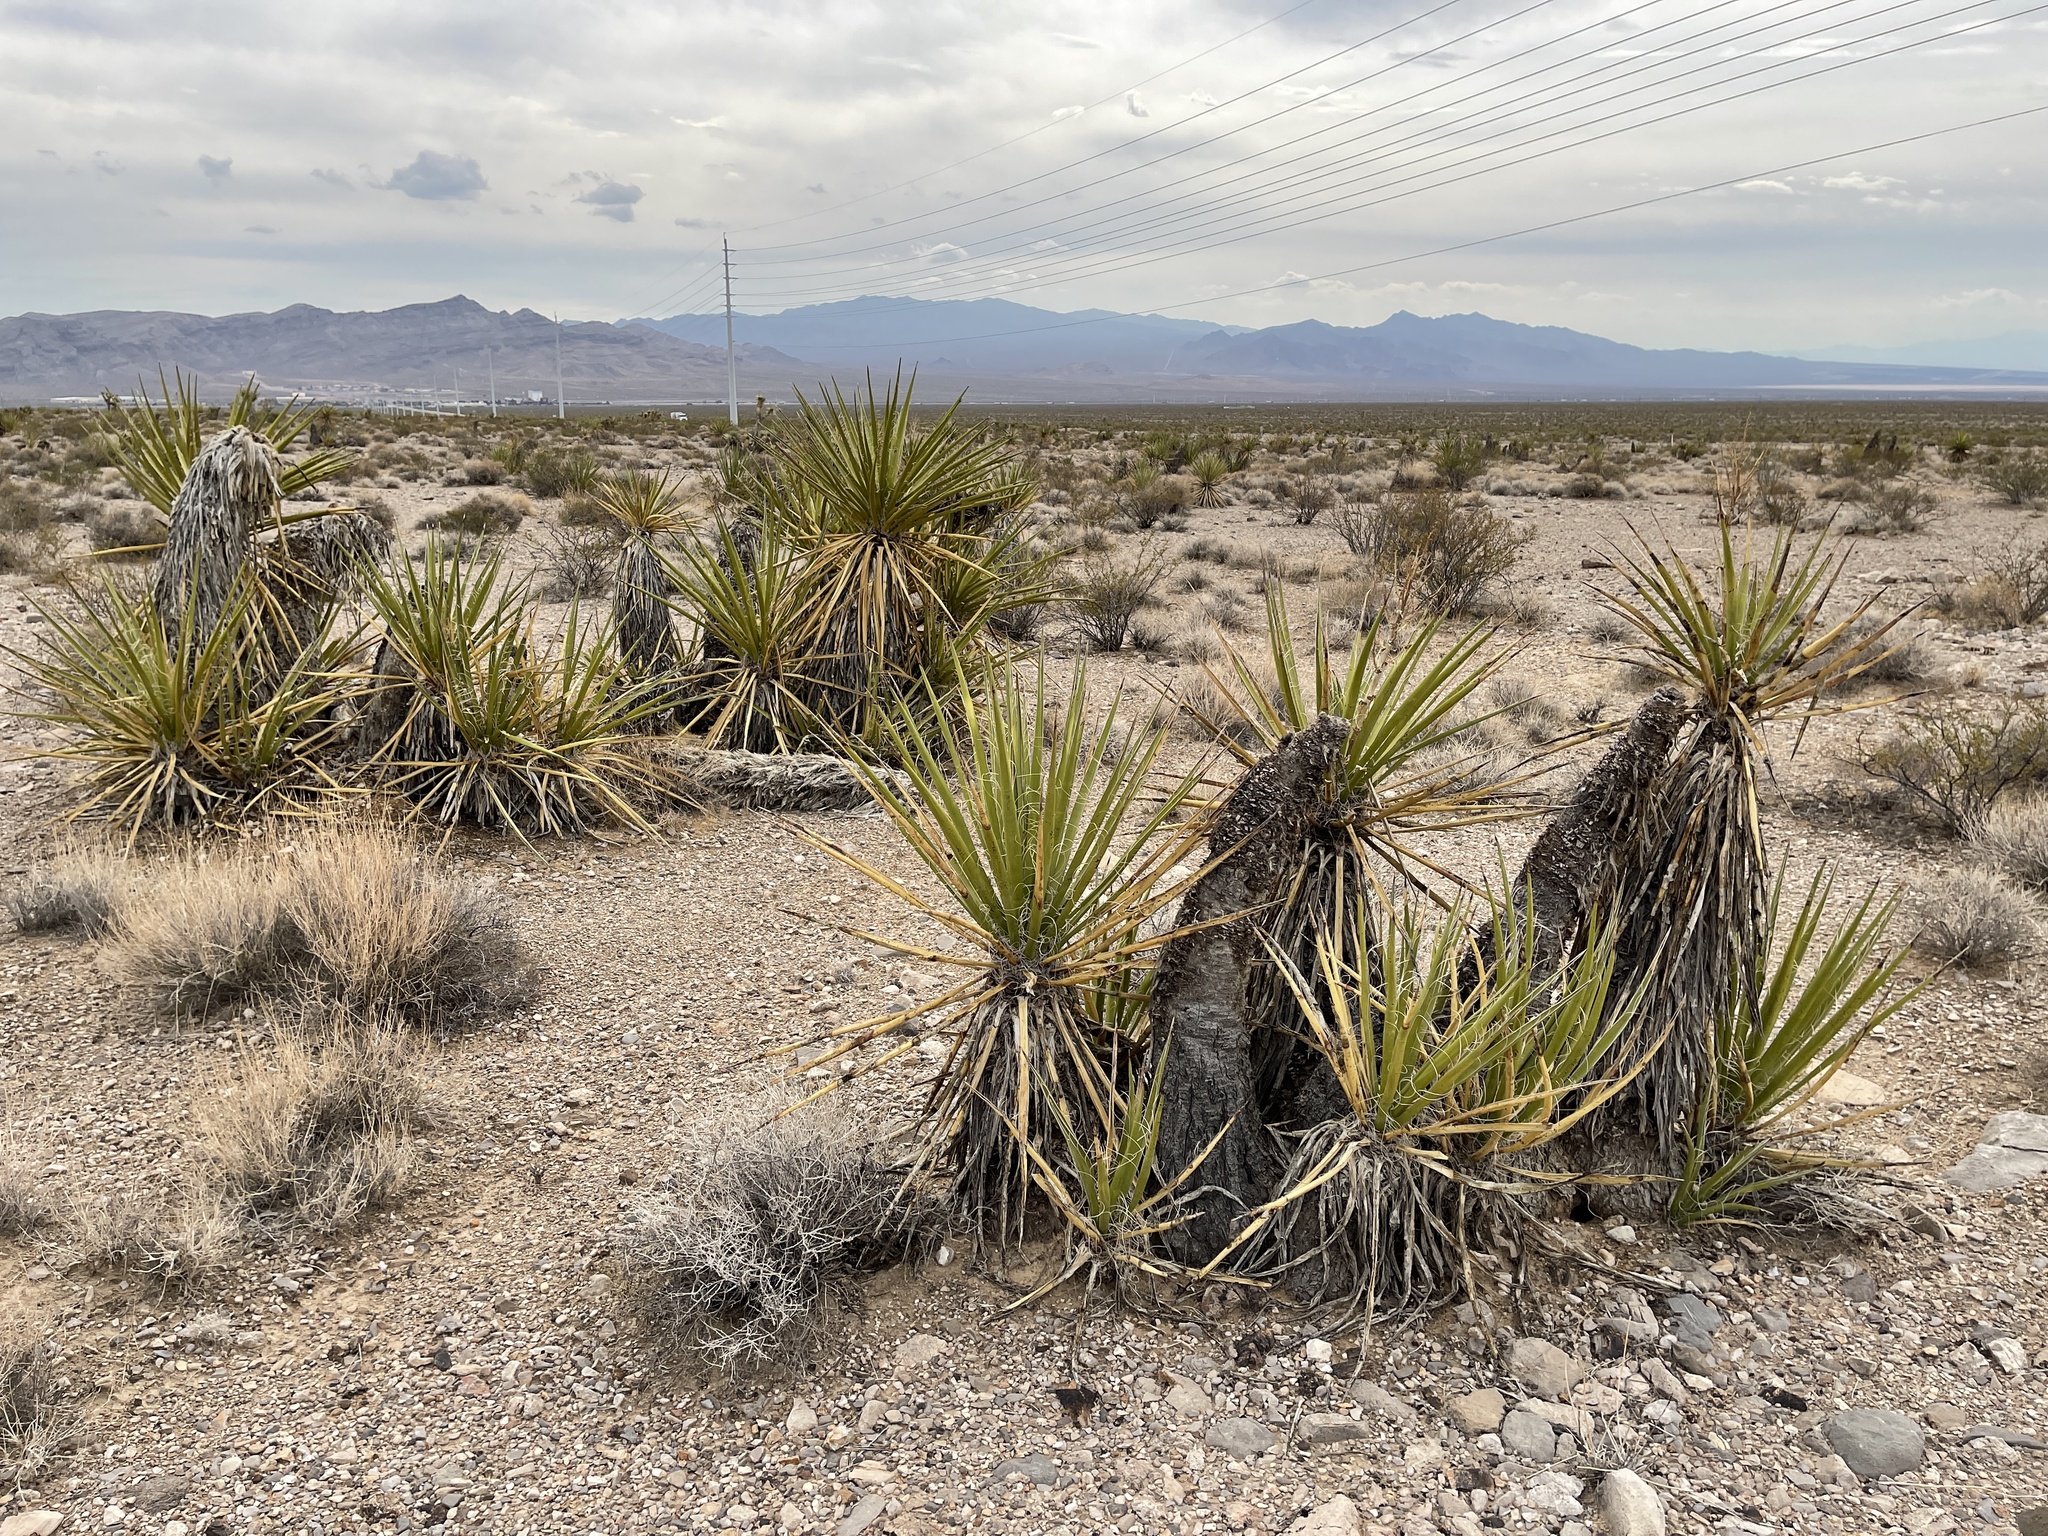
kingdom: Plantae
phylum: Tracheophyta
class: Liliopsida
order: Asparagales
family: Asparagaceae
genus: Yucca
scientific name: Yucca schidigera
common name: Mojave yucca
